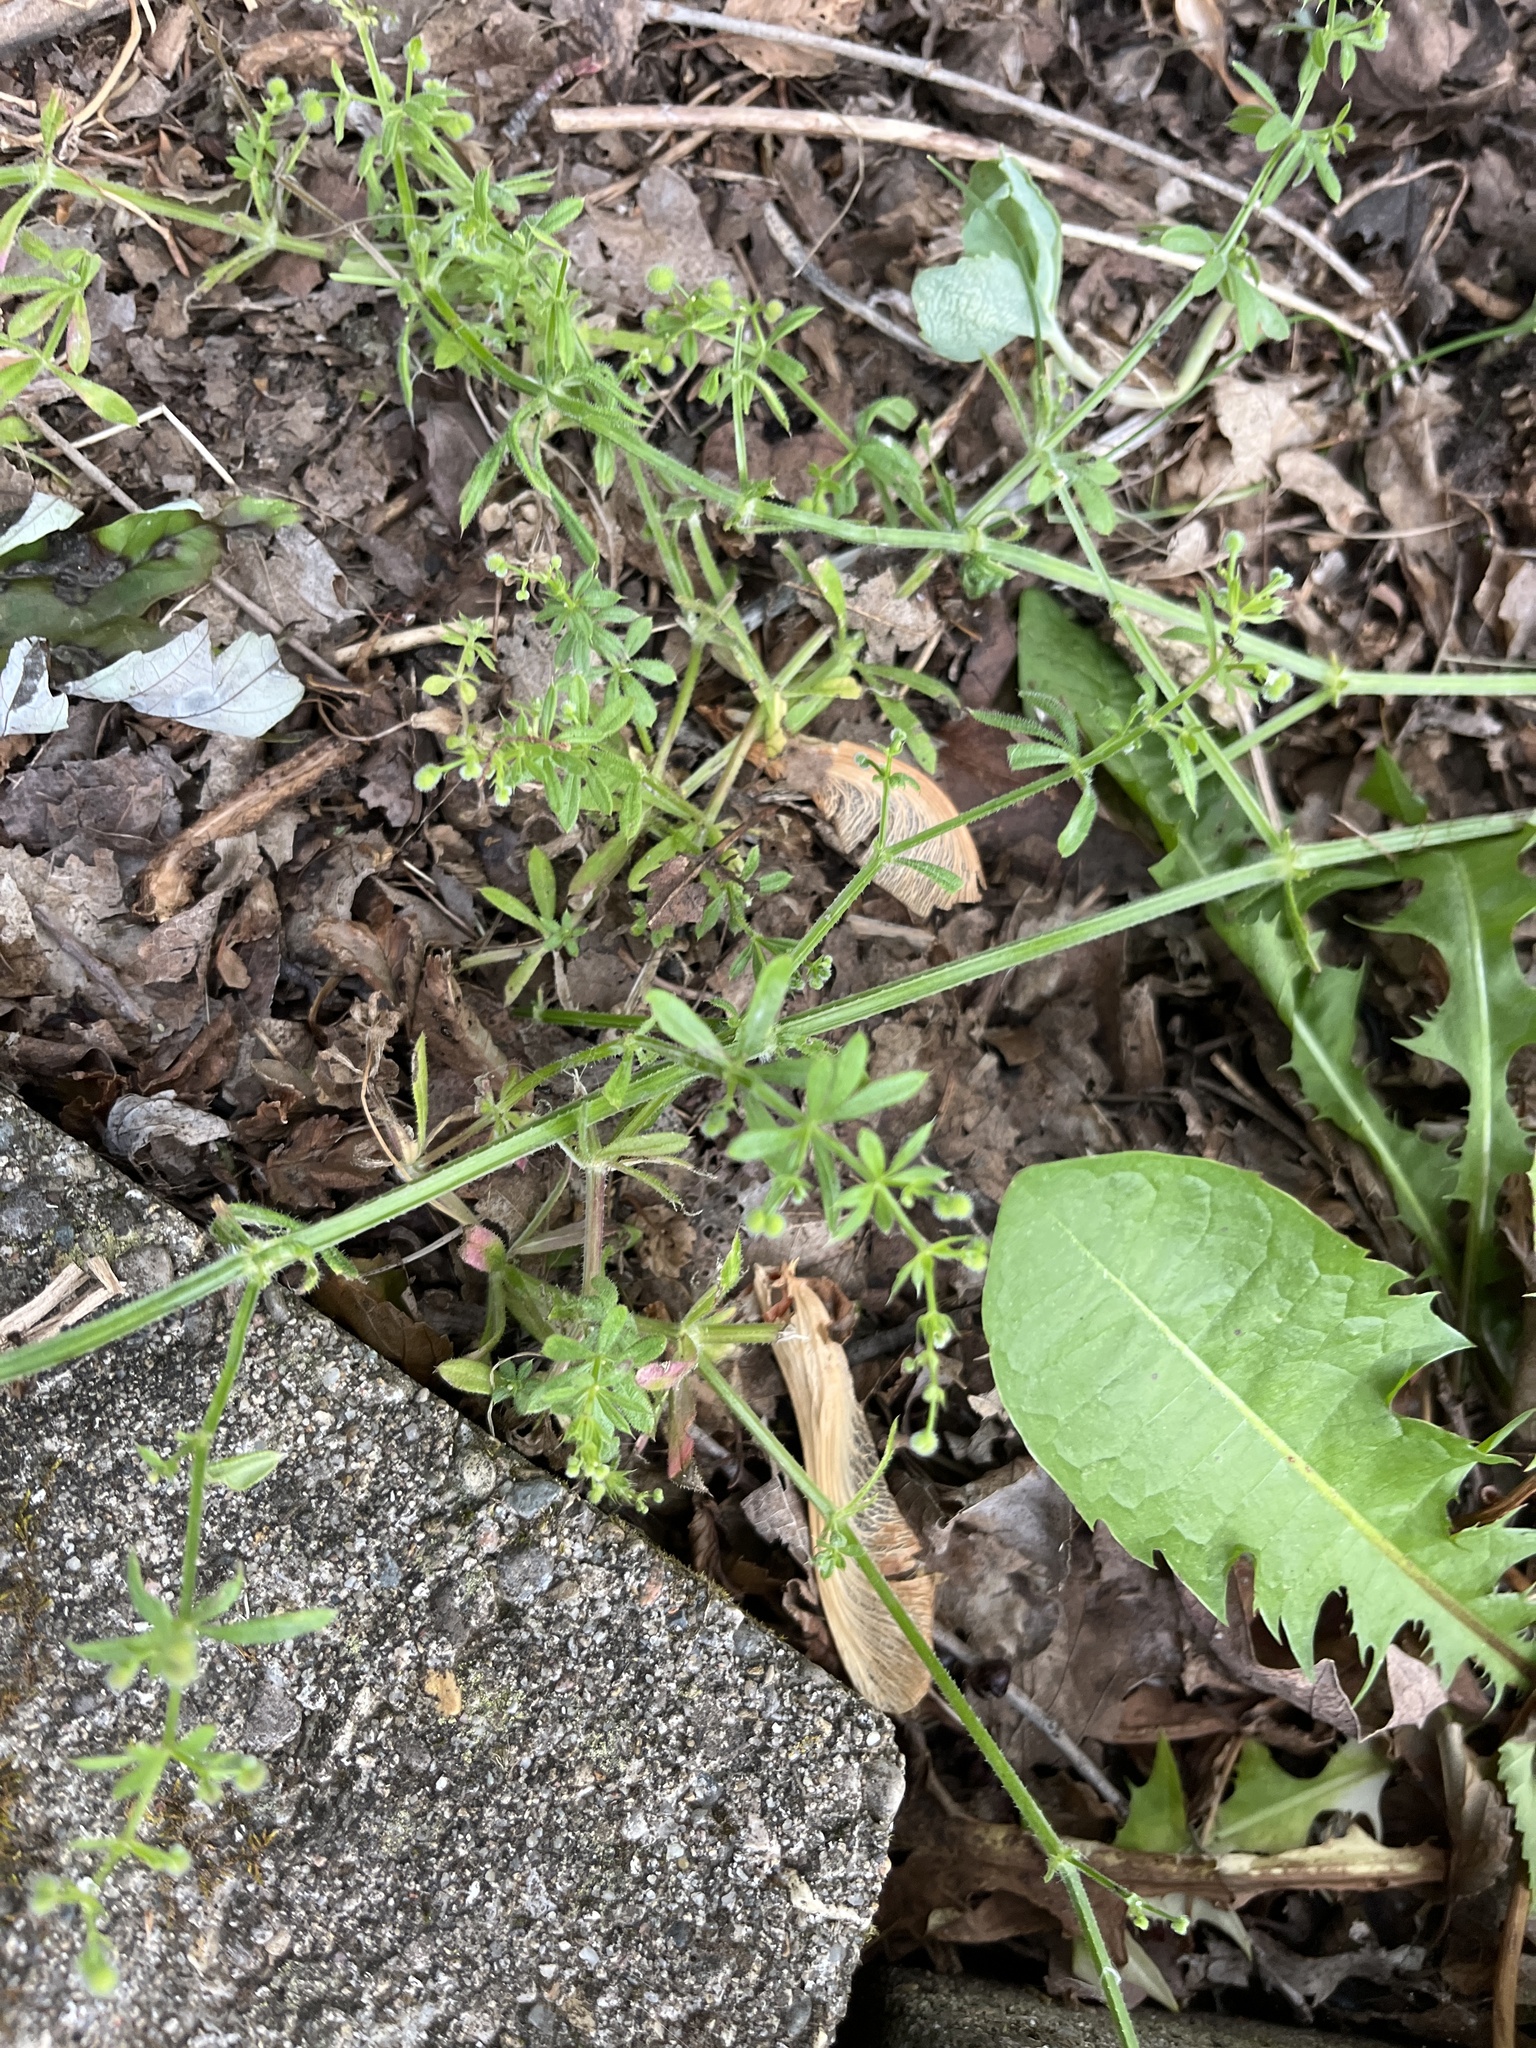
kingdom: Plantae
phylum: Tracheophyta
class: Magnoliopsida
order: Gentianales
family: Rubiaceae
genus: Galium
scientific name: Galium aparine
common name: Cleavers
